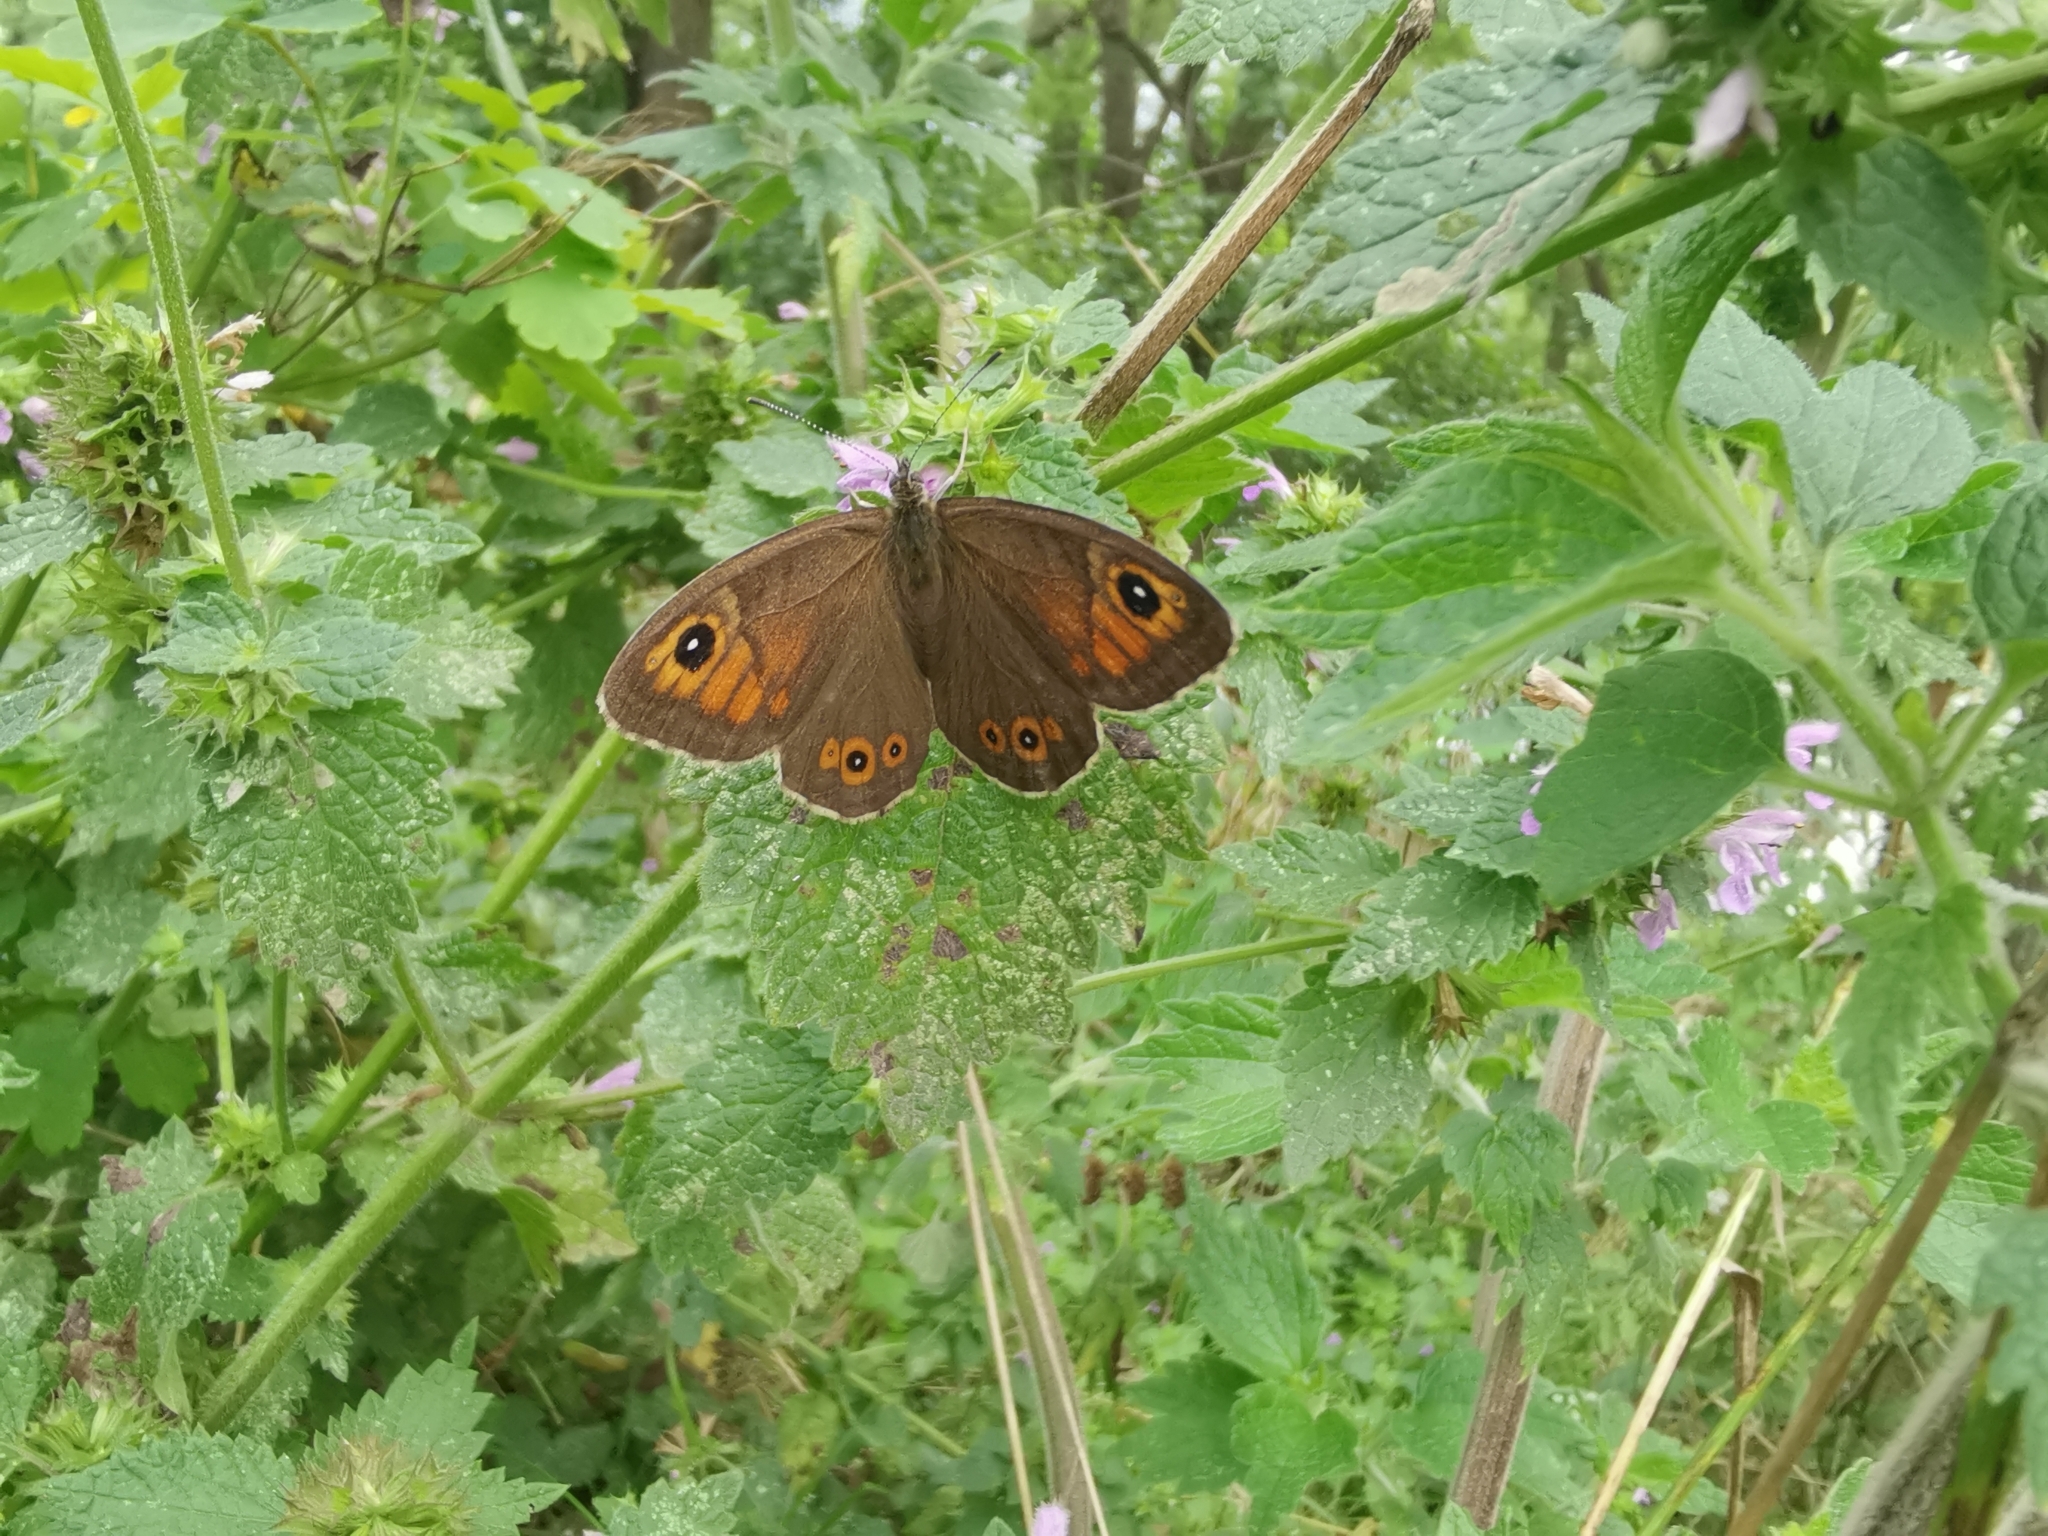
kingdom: Animalia
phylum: Arthropoda
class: Insecta
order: Lepidoptera
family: Nymphalidae
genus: Pararge
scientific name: Pararge Lasiommata maera
